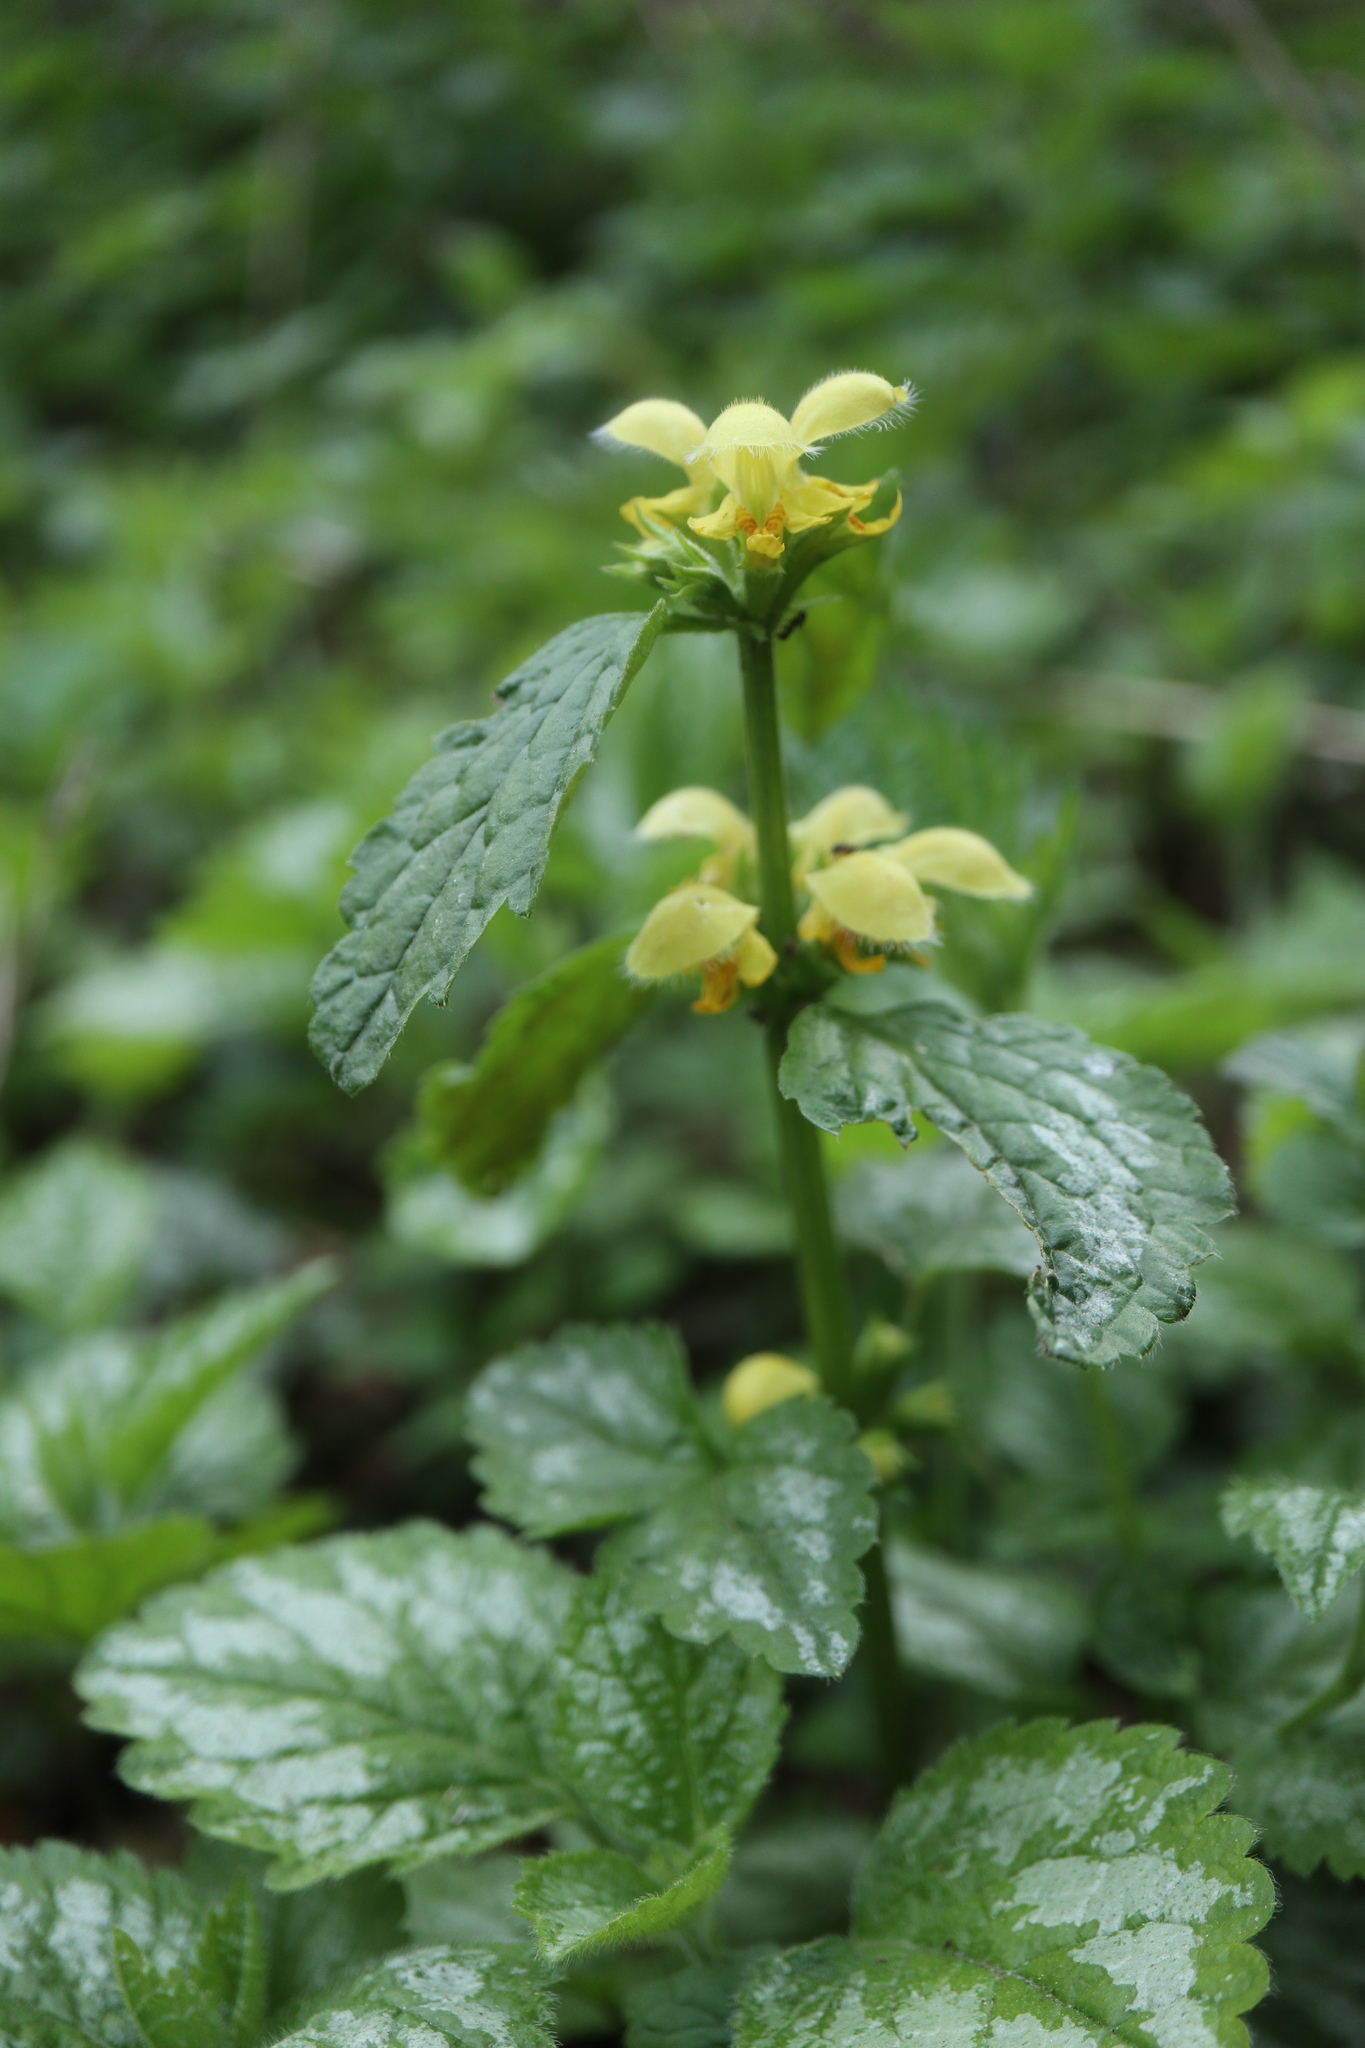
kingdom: Plantae
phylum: Tracheophyta
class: Magnoliopsida
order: Lamiales
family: Lamiaceae
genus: Lamium
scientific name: Lamium galeobdolon
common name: Yellow archangel
